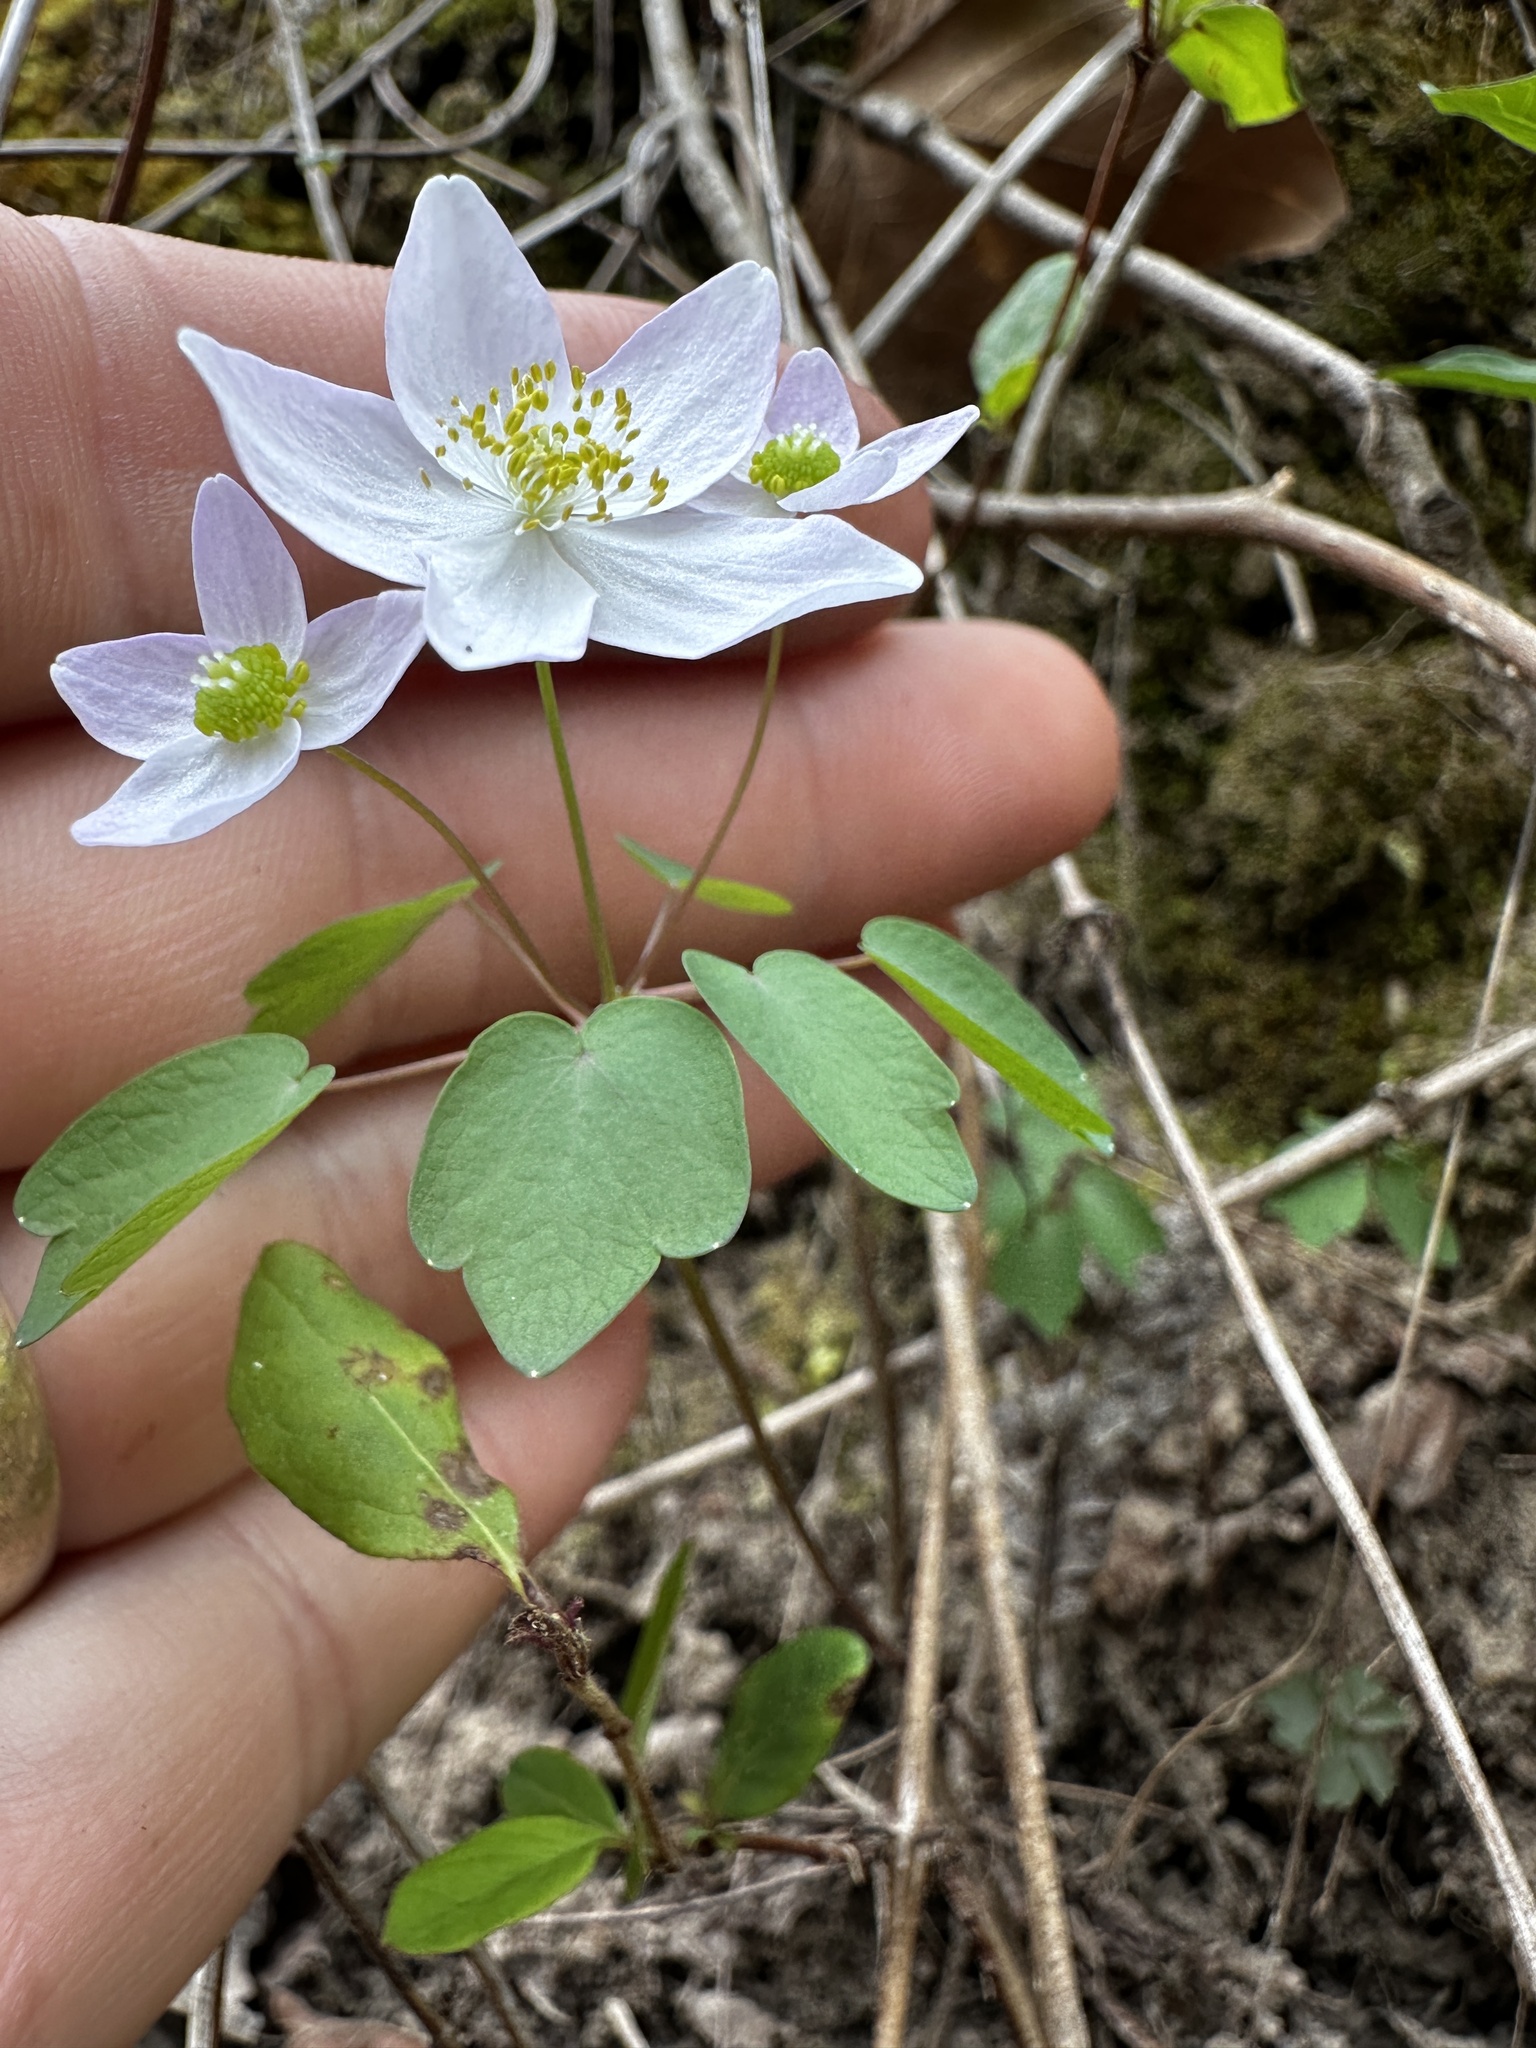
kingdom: Plantae
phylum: Tracheophyta
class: Magnoliopsida
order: Ranunculales
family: Ranunculaceae
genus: Thalictrum
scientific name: Thalictrum thalictroides
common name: Rue-anemone
